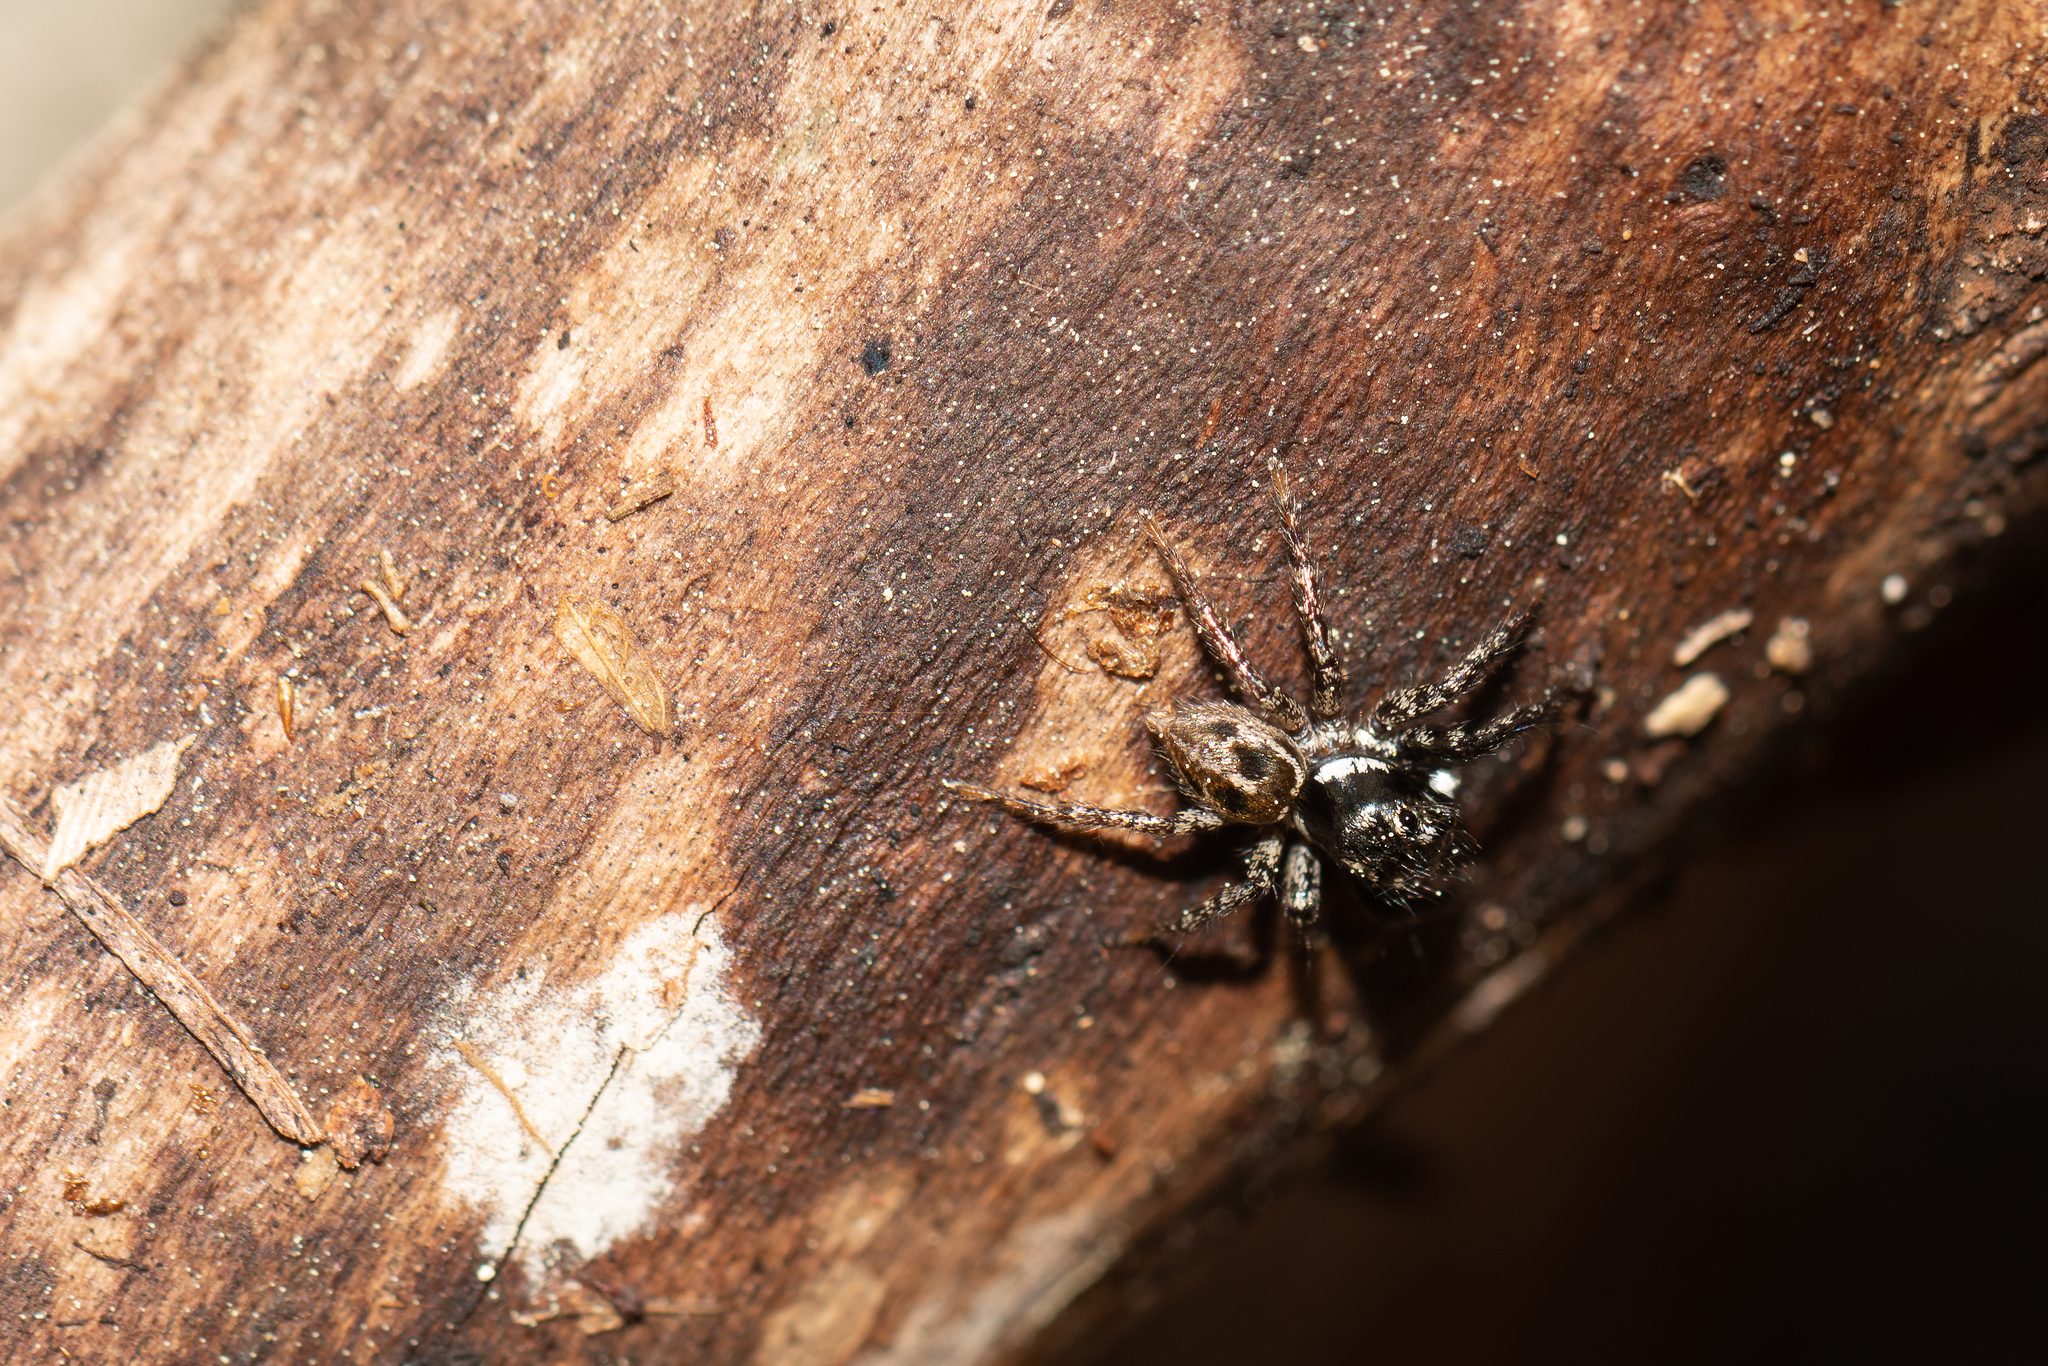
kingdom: Animalia
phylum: Arthropoda
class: Arachnida
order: Araneae
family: Salticidae
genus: Anasaitis
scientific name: Anasaitis canosa
